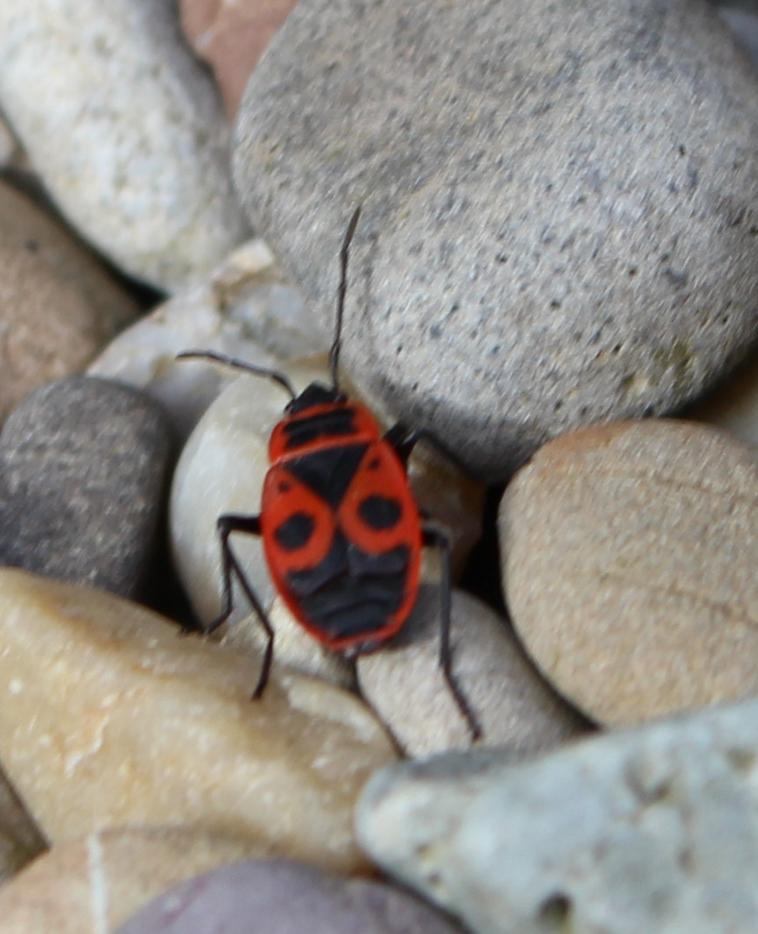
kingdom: Animalia
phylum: Arthropoda
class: Insecta
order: Hemiptera
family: Pyrrhocoridae
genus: Pyrrhocoris
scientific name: Pyrrhocoris apterus
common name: Firebug
